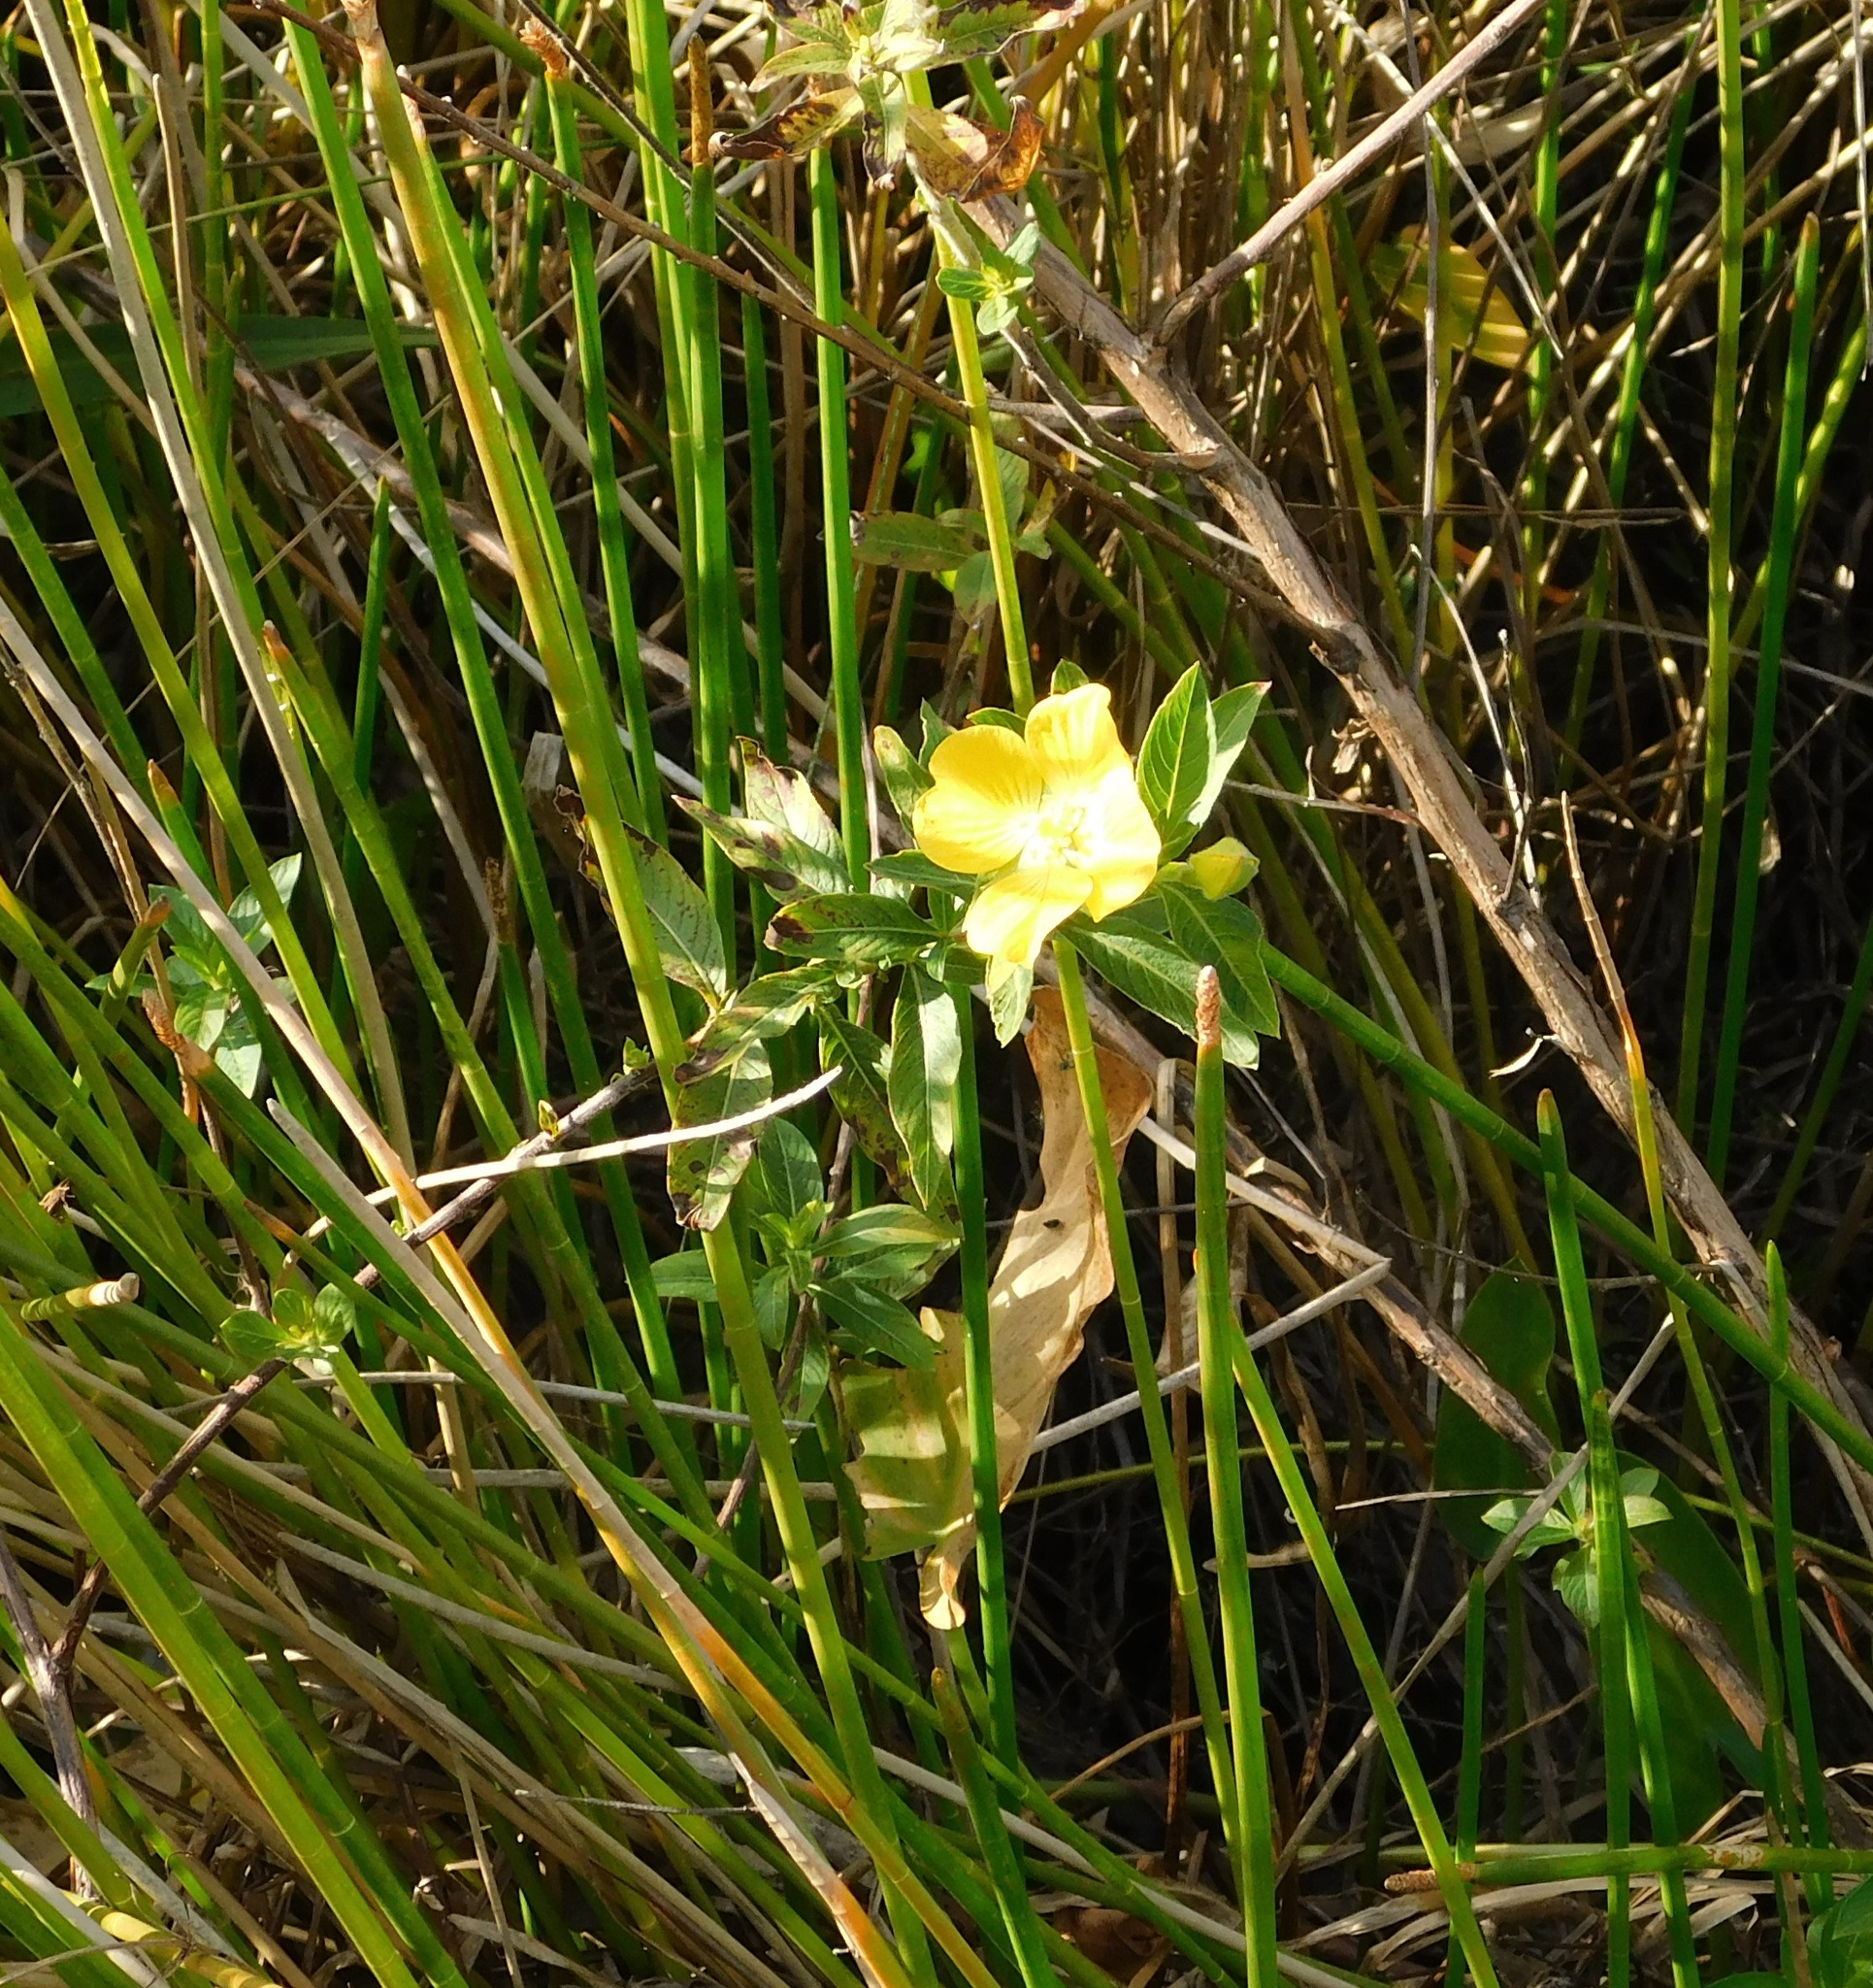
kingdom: Plantae
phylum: Tracheophyta
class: Magnoliopsida
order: Myrtales
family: Onagraceae
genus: Ludwigia
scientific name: Ludwigia peruviana
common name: Peruvian primrose-willow
